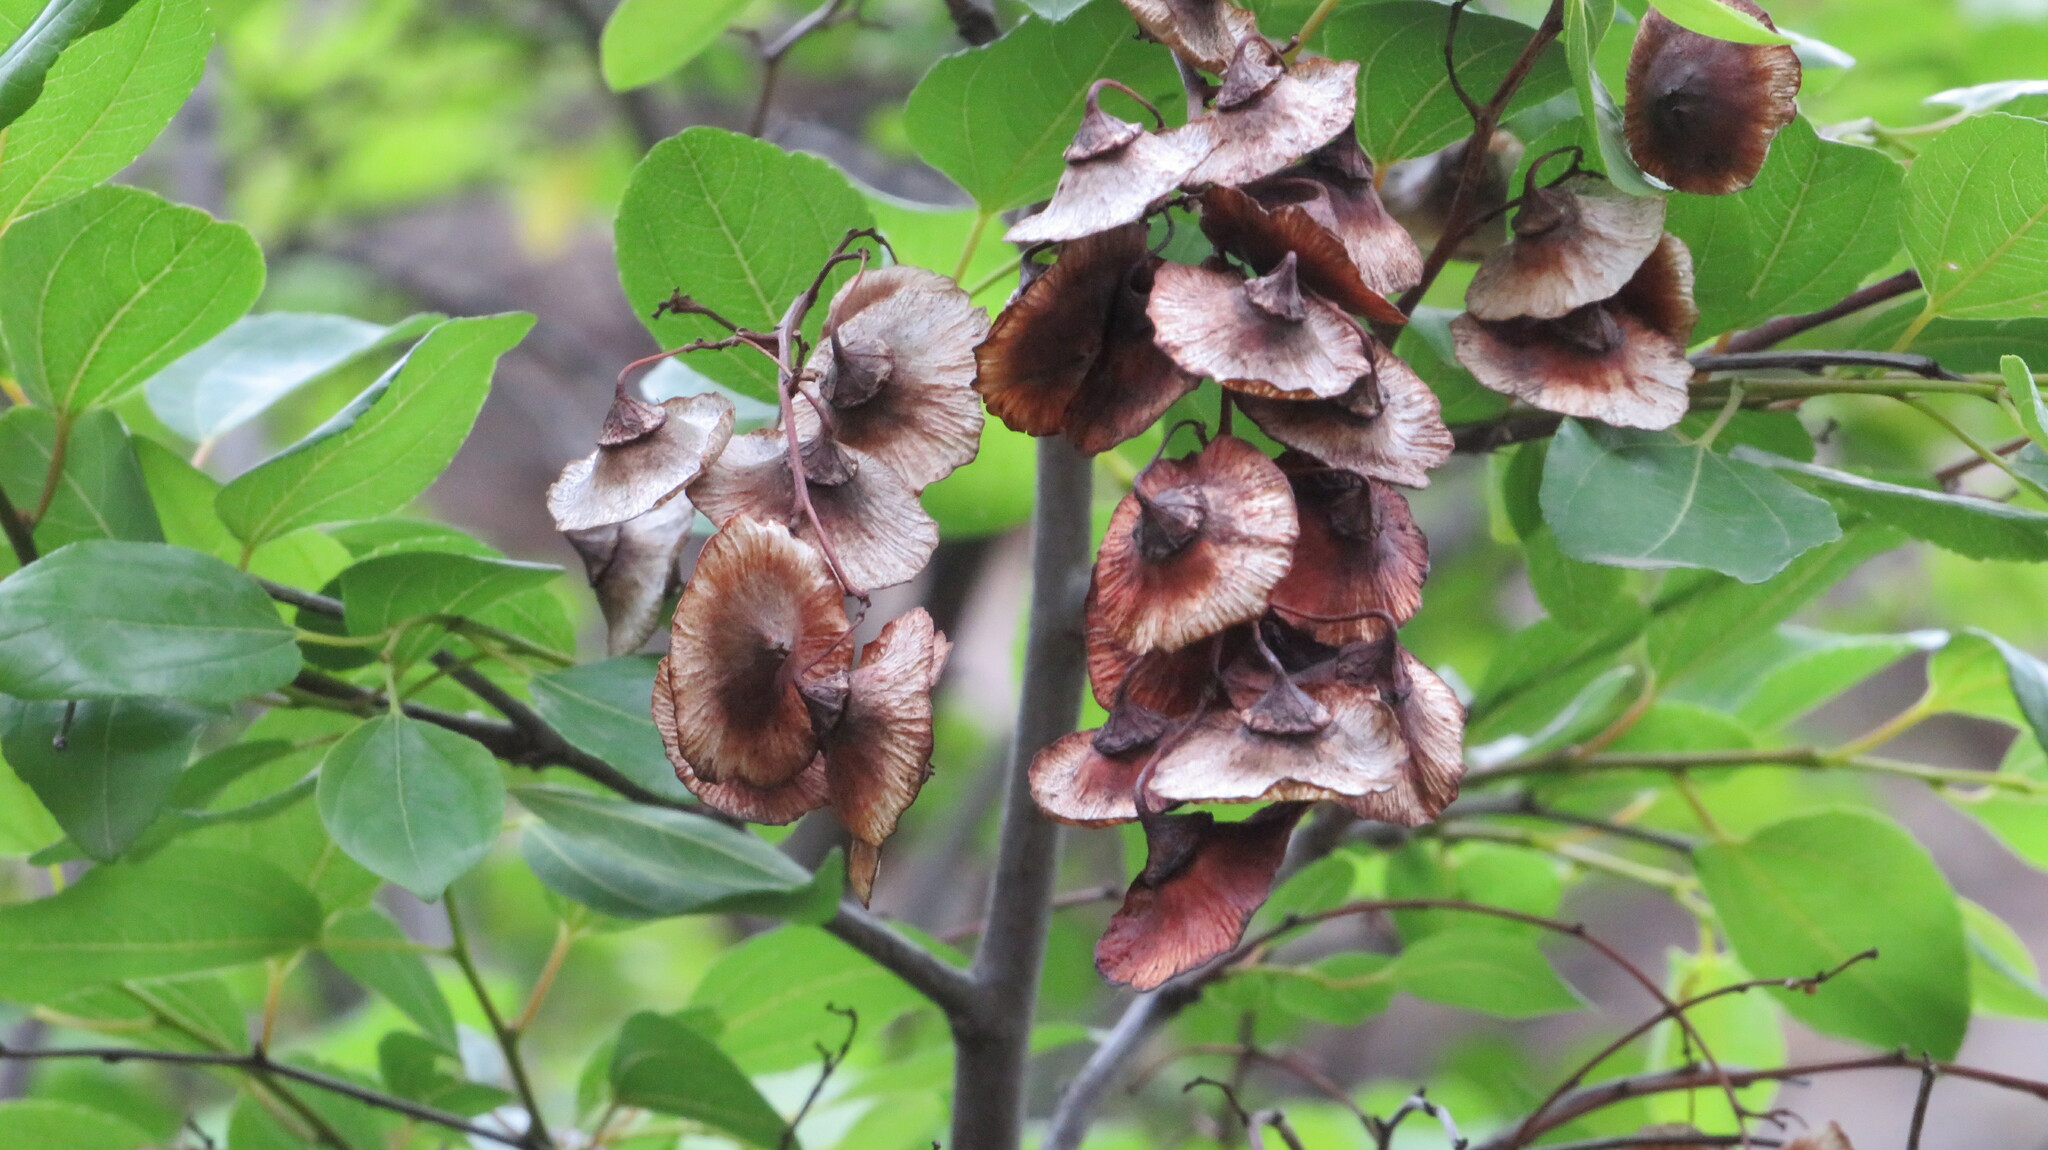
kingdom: Plantae
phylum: Tracheophyta
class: Magnoliopsida
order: Rosales
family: Rhamnaceae
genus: Paliurus
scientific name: Paliurus spina-christi
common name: Jeruselem thorn
